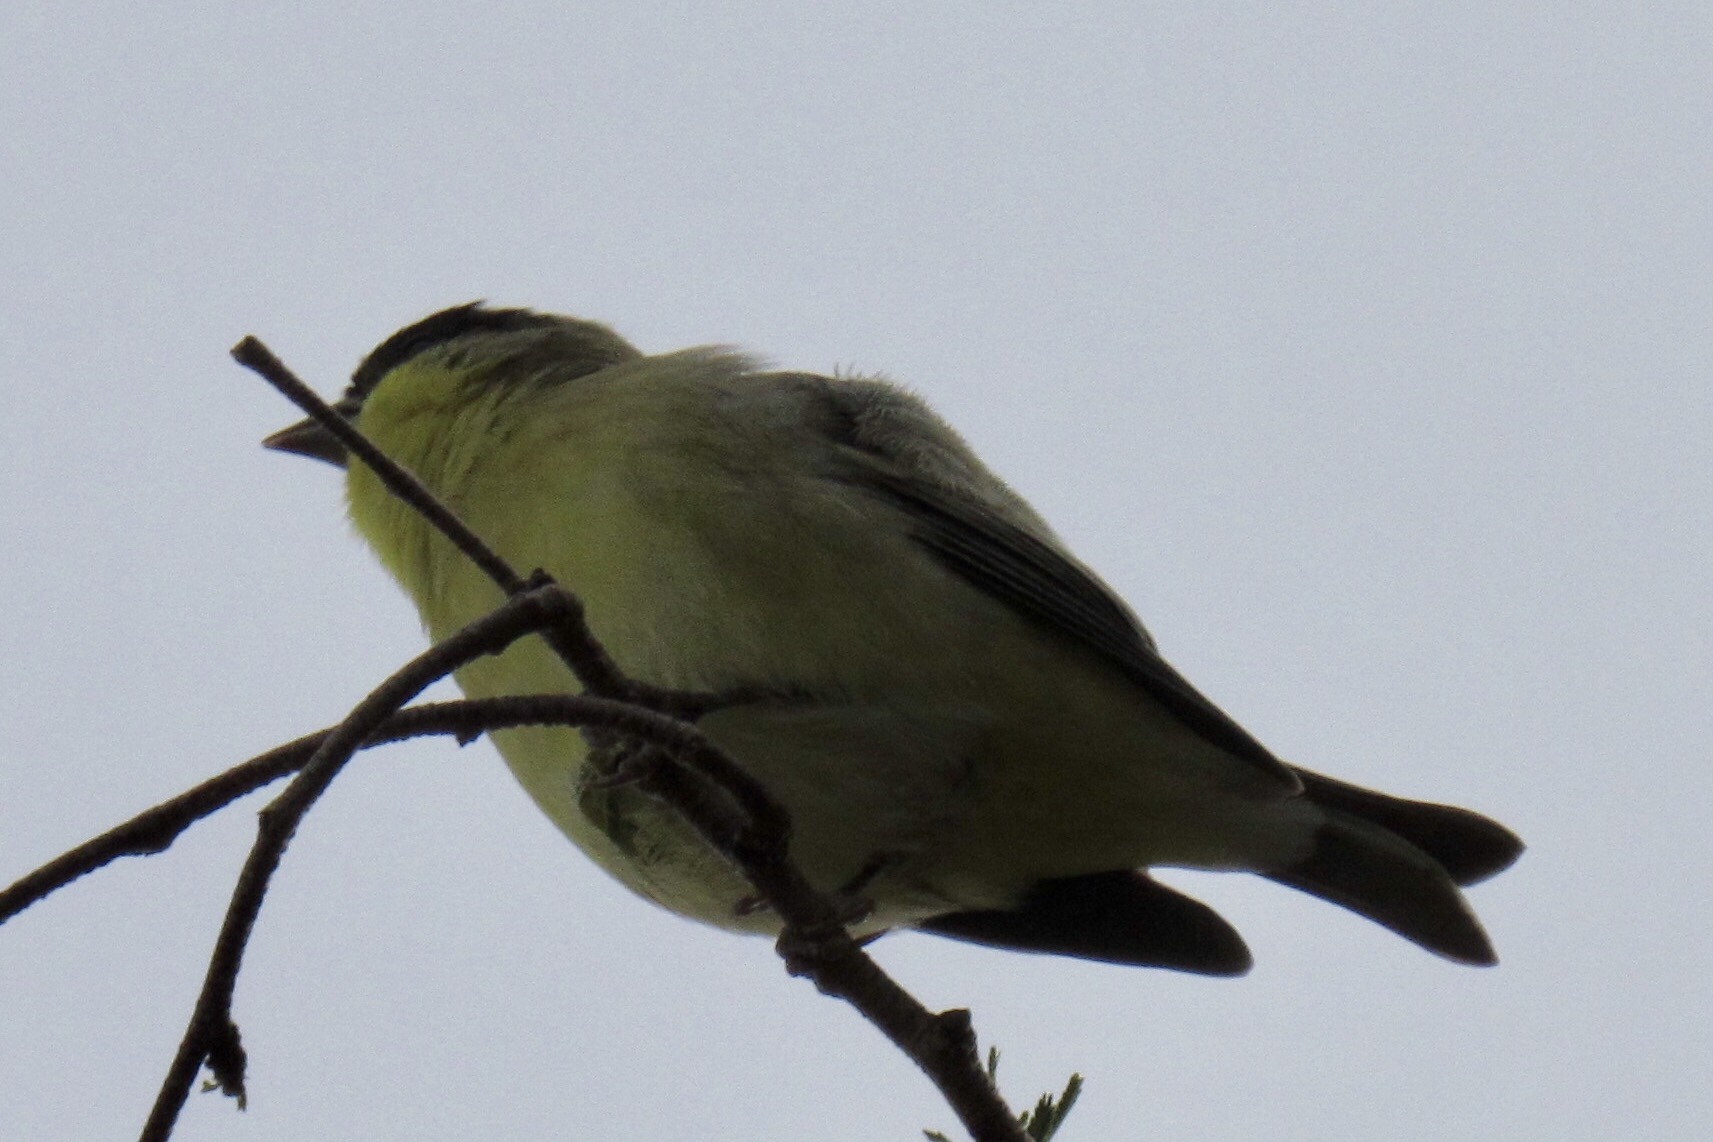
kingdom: Animalia
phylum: Chordata
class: Aves
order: Passeriformes
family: Fringillidae
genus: Spinus
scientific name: Spinus psaltria
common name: Lesser goldfinch
